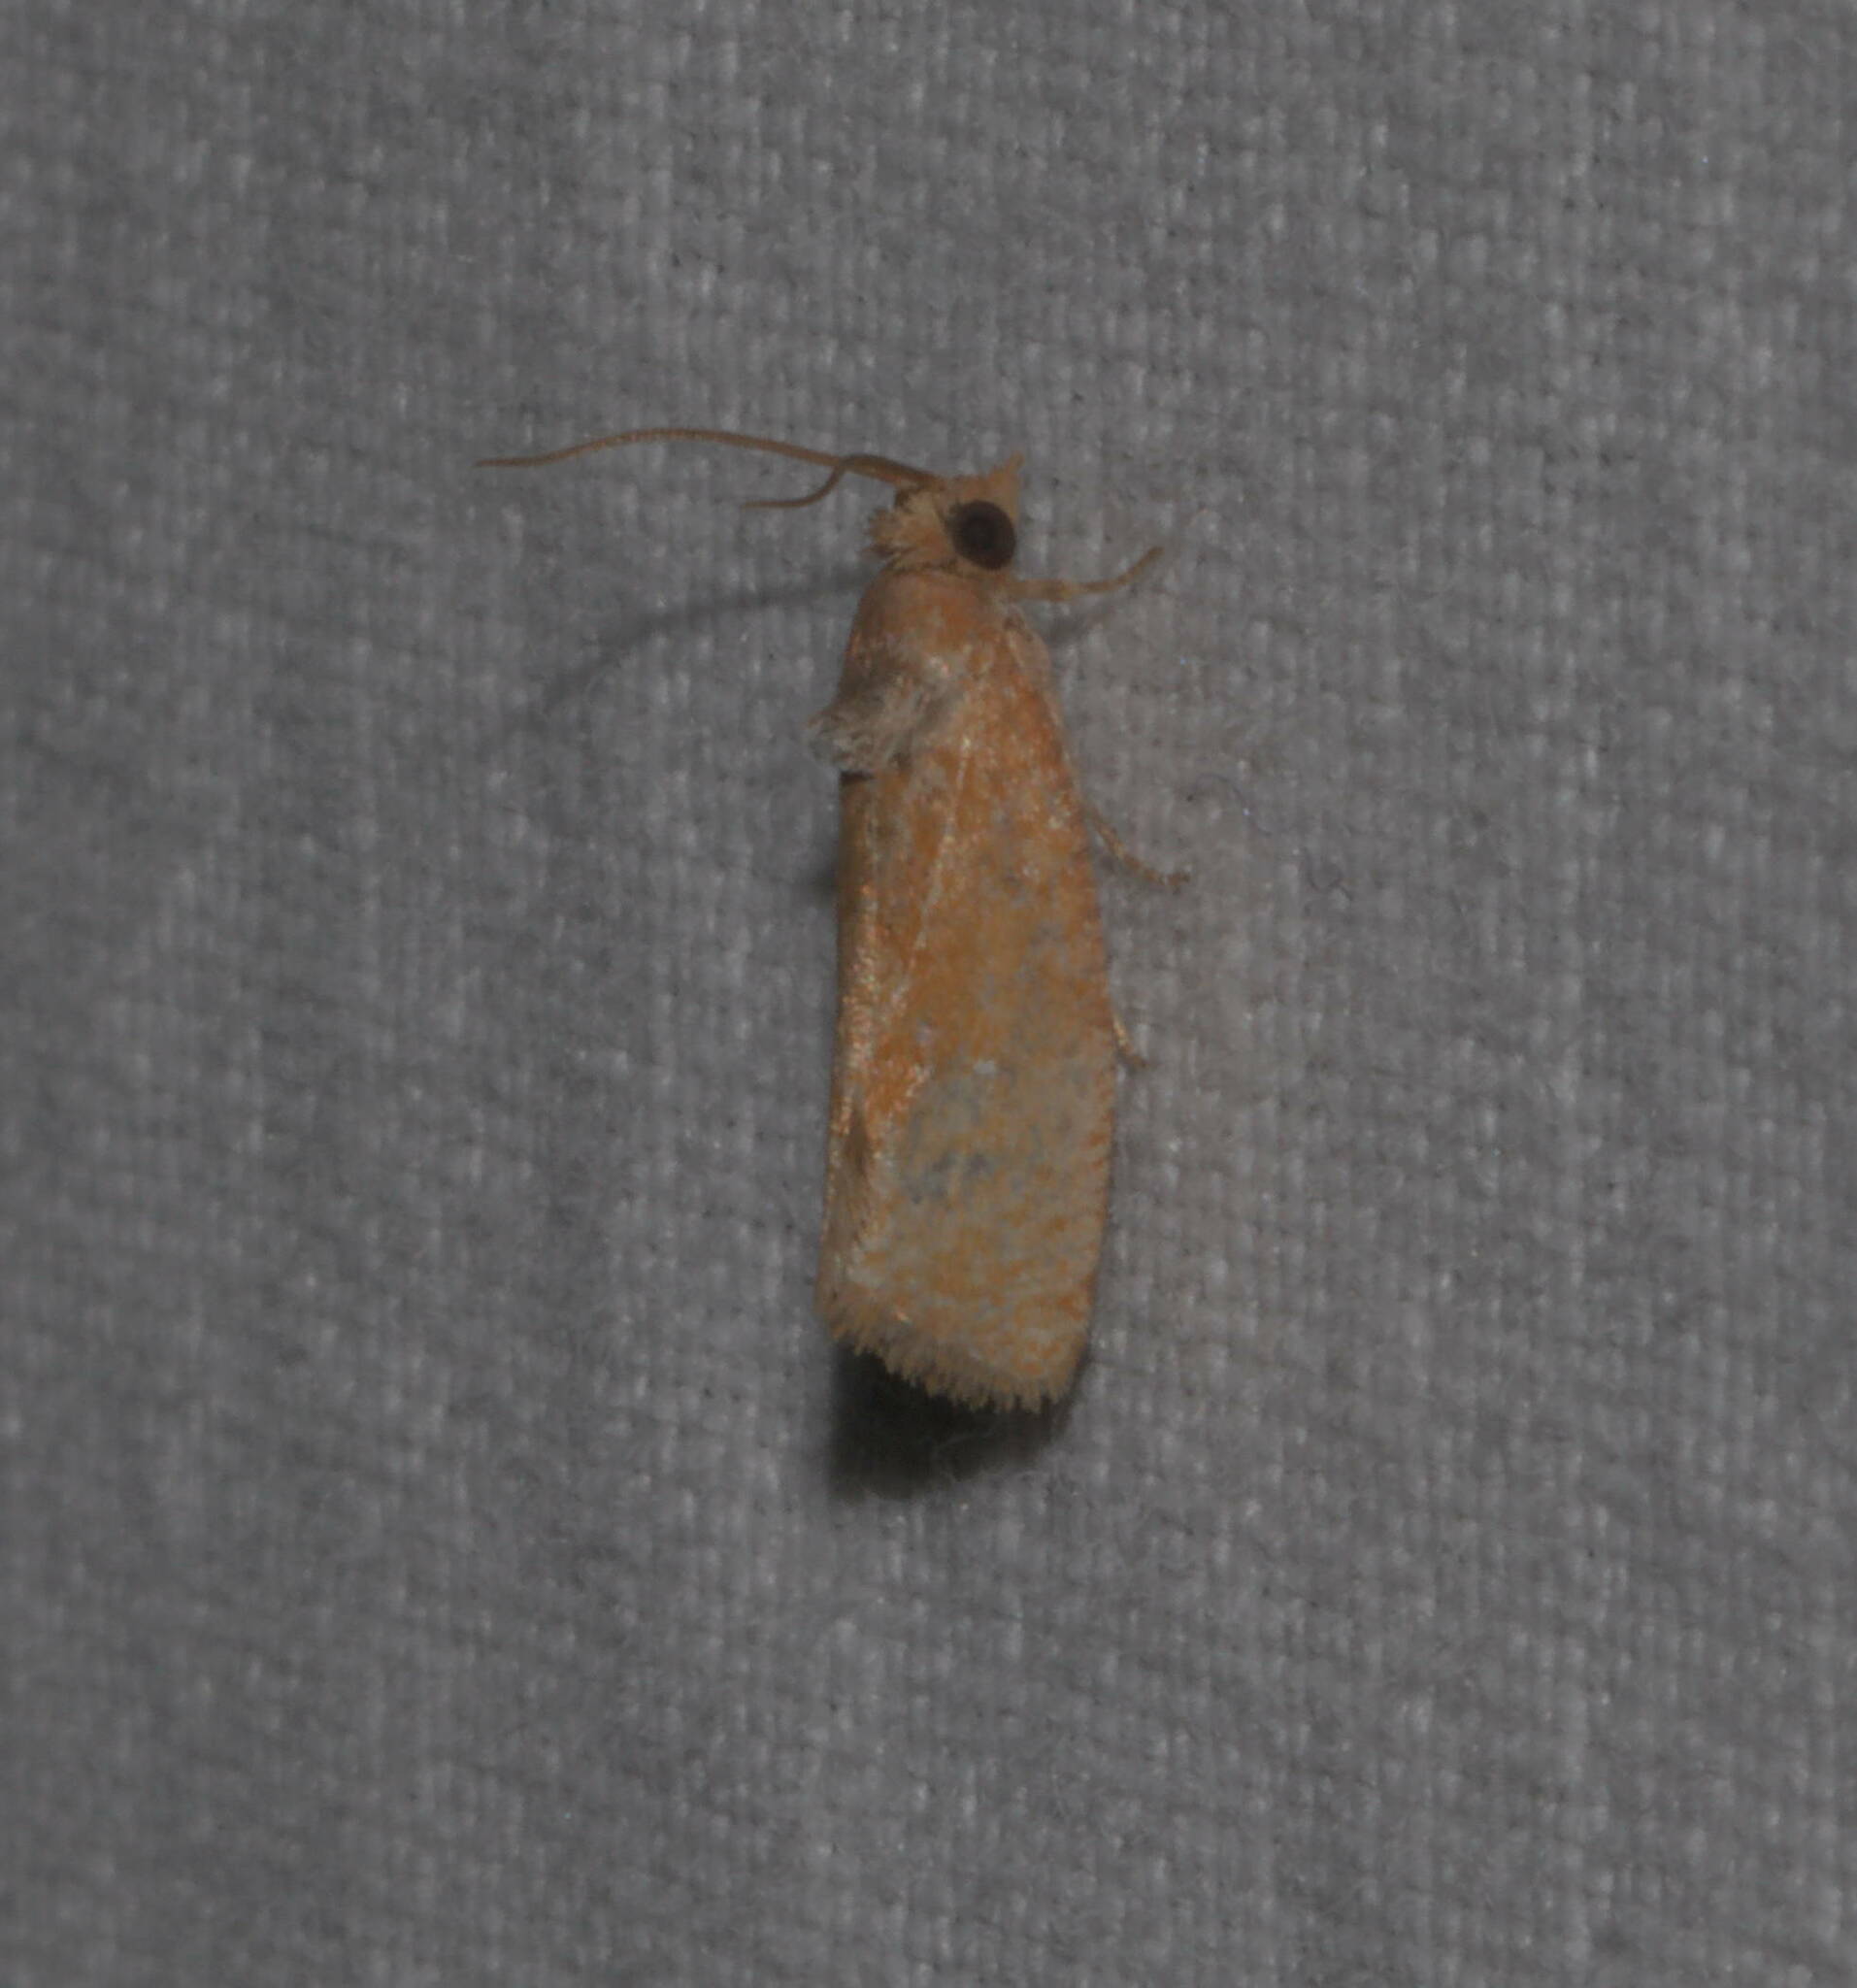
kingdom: Animalia
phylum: Arthropoda
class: Insecta
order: Lepidoptera
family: Tortricidae
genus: Cryptophlebia
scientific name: Cryptophlebia illepida
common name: Moth
